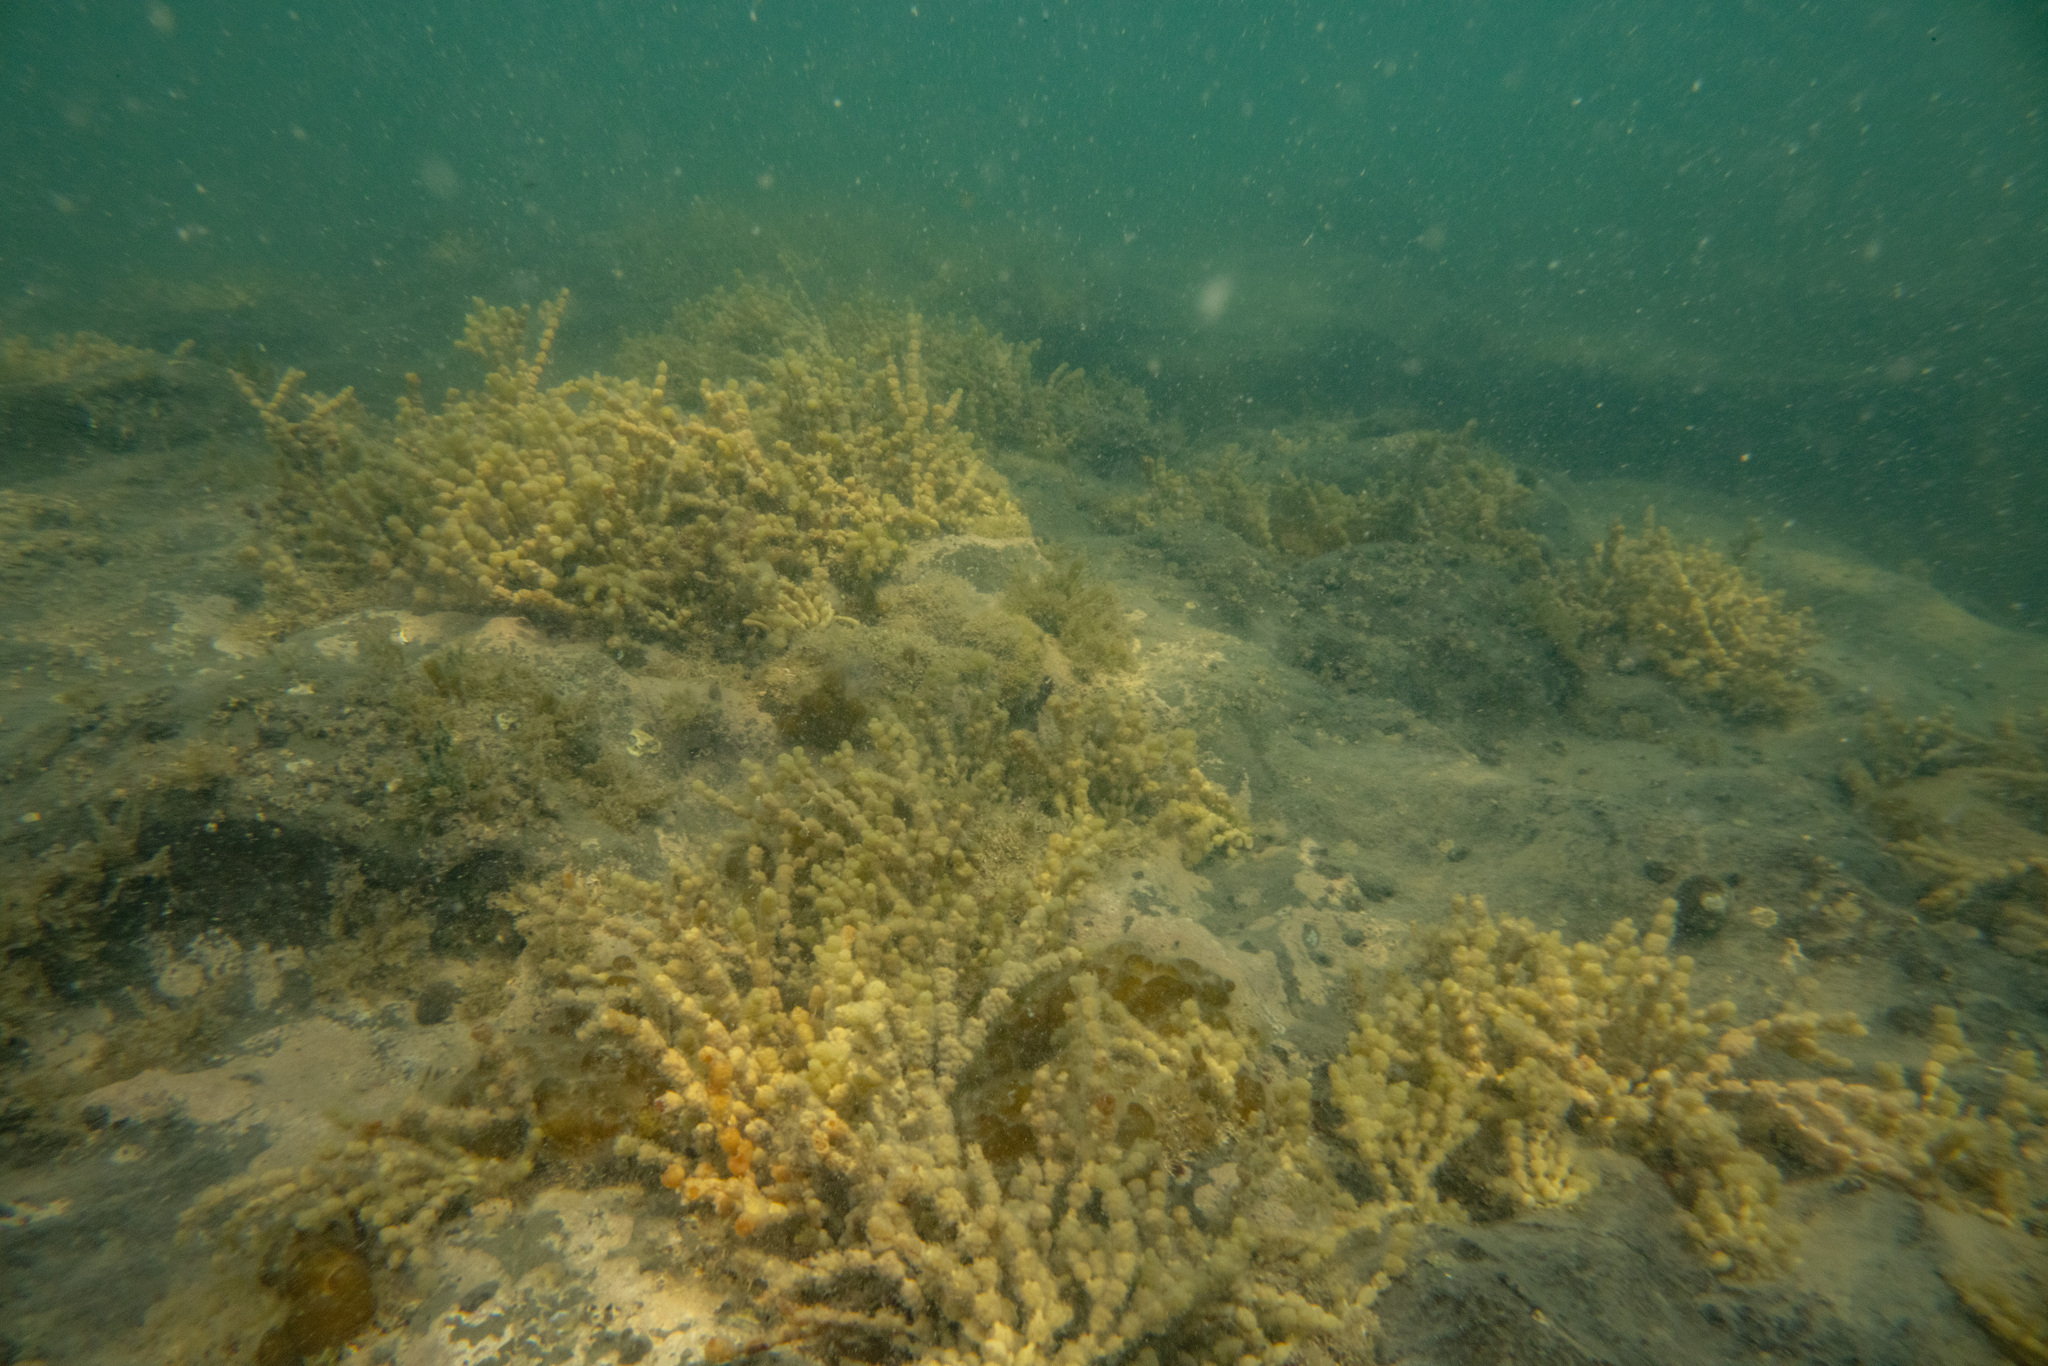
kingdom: Chromista
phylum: Ochrophyta
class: Phaeophyceae
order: Fucales
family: Hormosiraceae
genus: Hormosira
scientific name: Hormosira banksii
